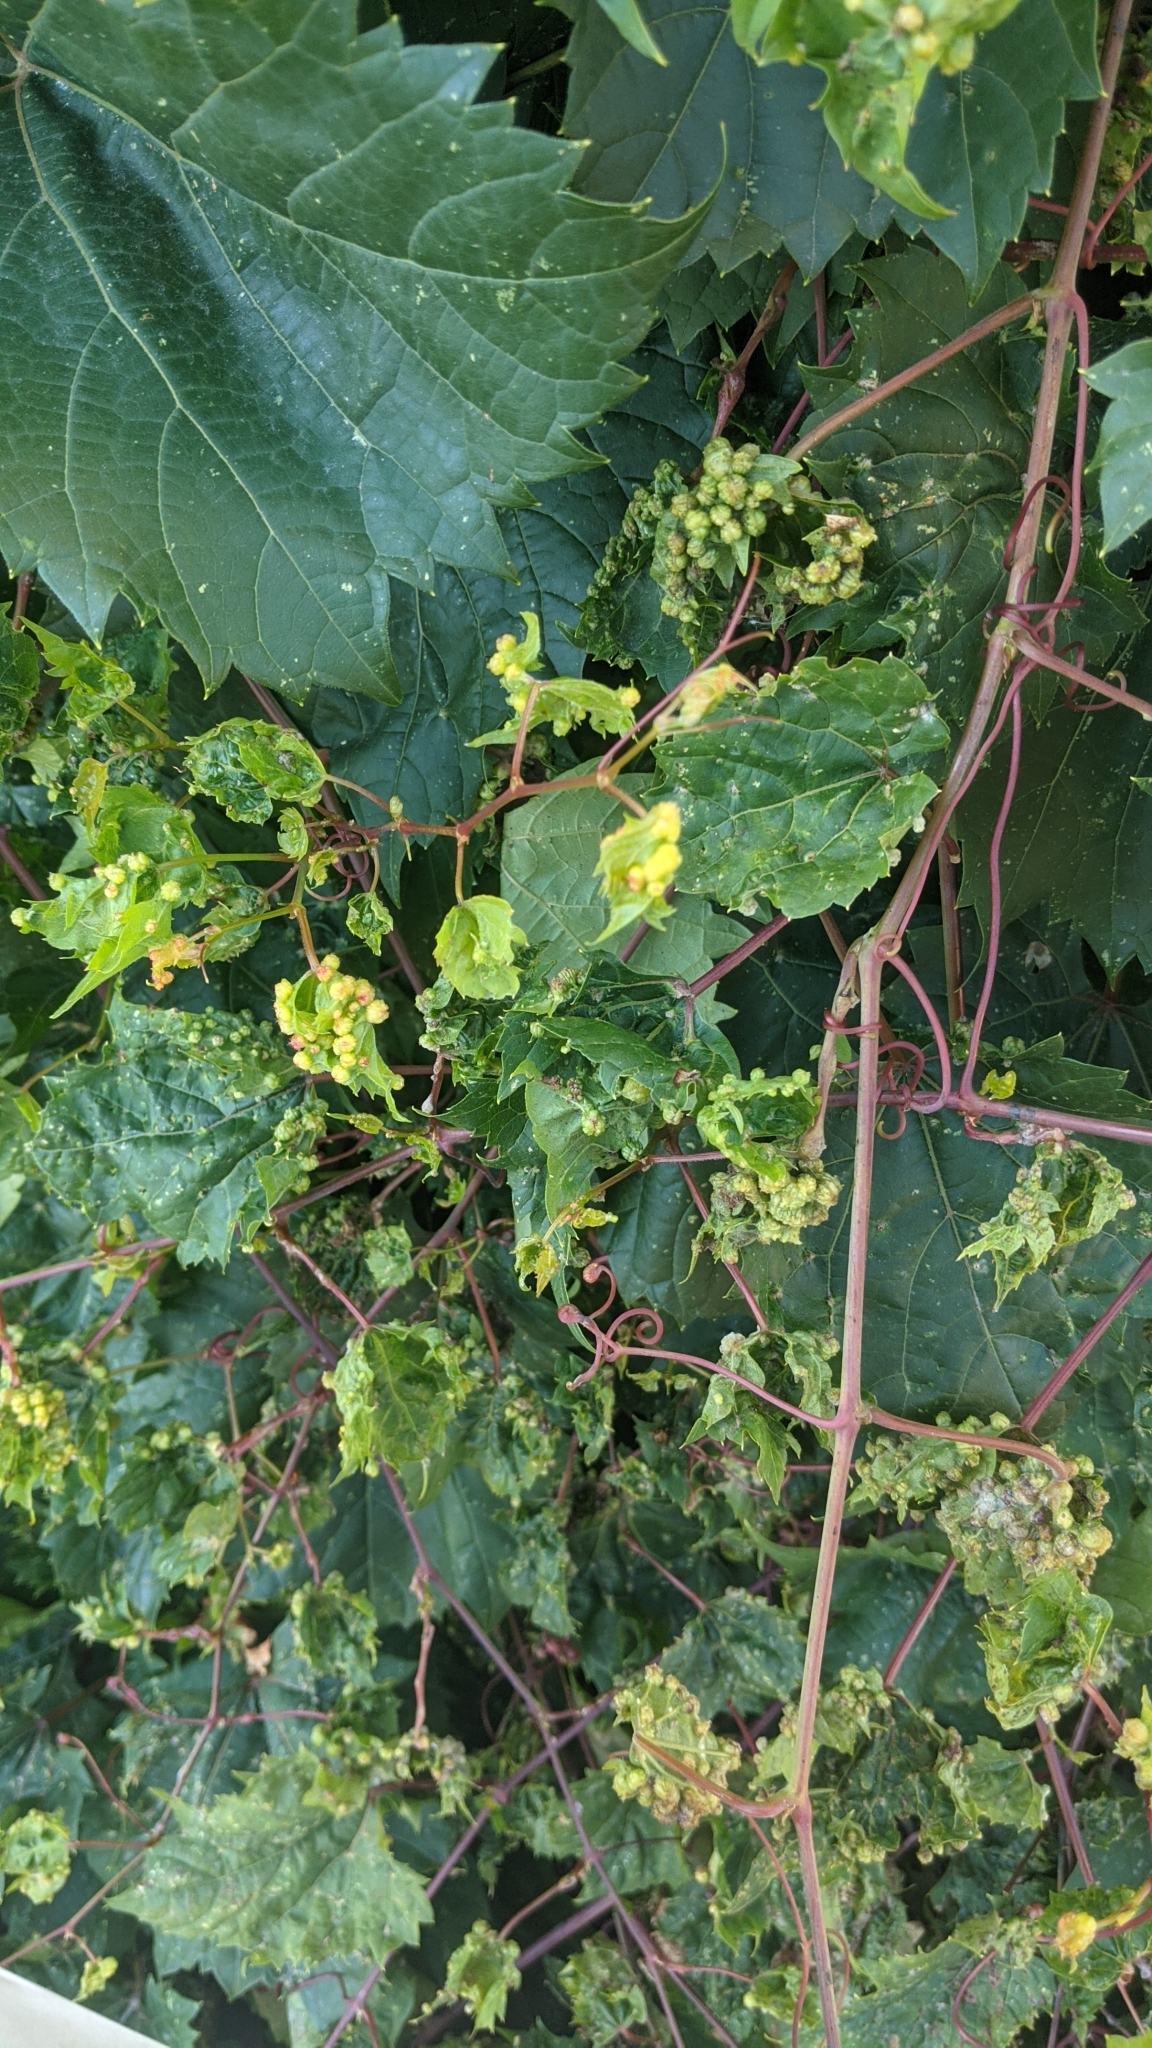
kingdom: Animalia
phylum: Arthropoda
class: Insecta
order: Hemiptera
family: Phylloxeridae
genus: Daktulosphaira
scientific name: Daktulosphaira vitifoliae
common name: Grape phylloxera
